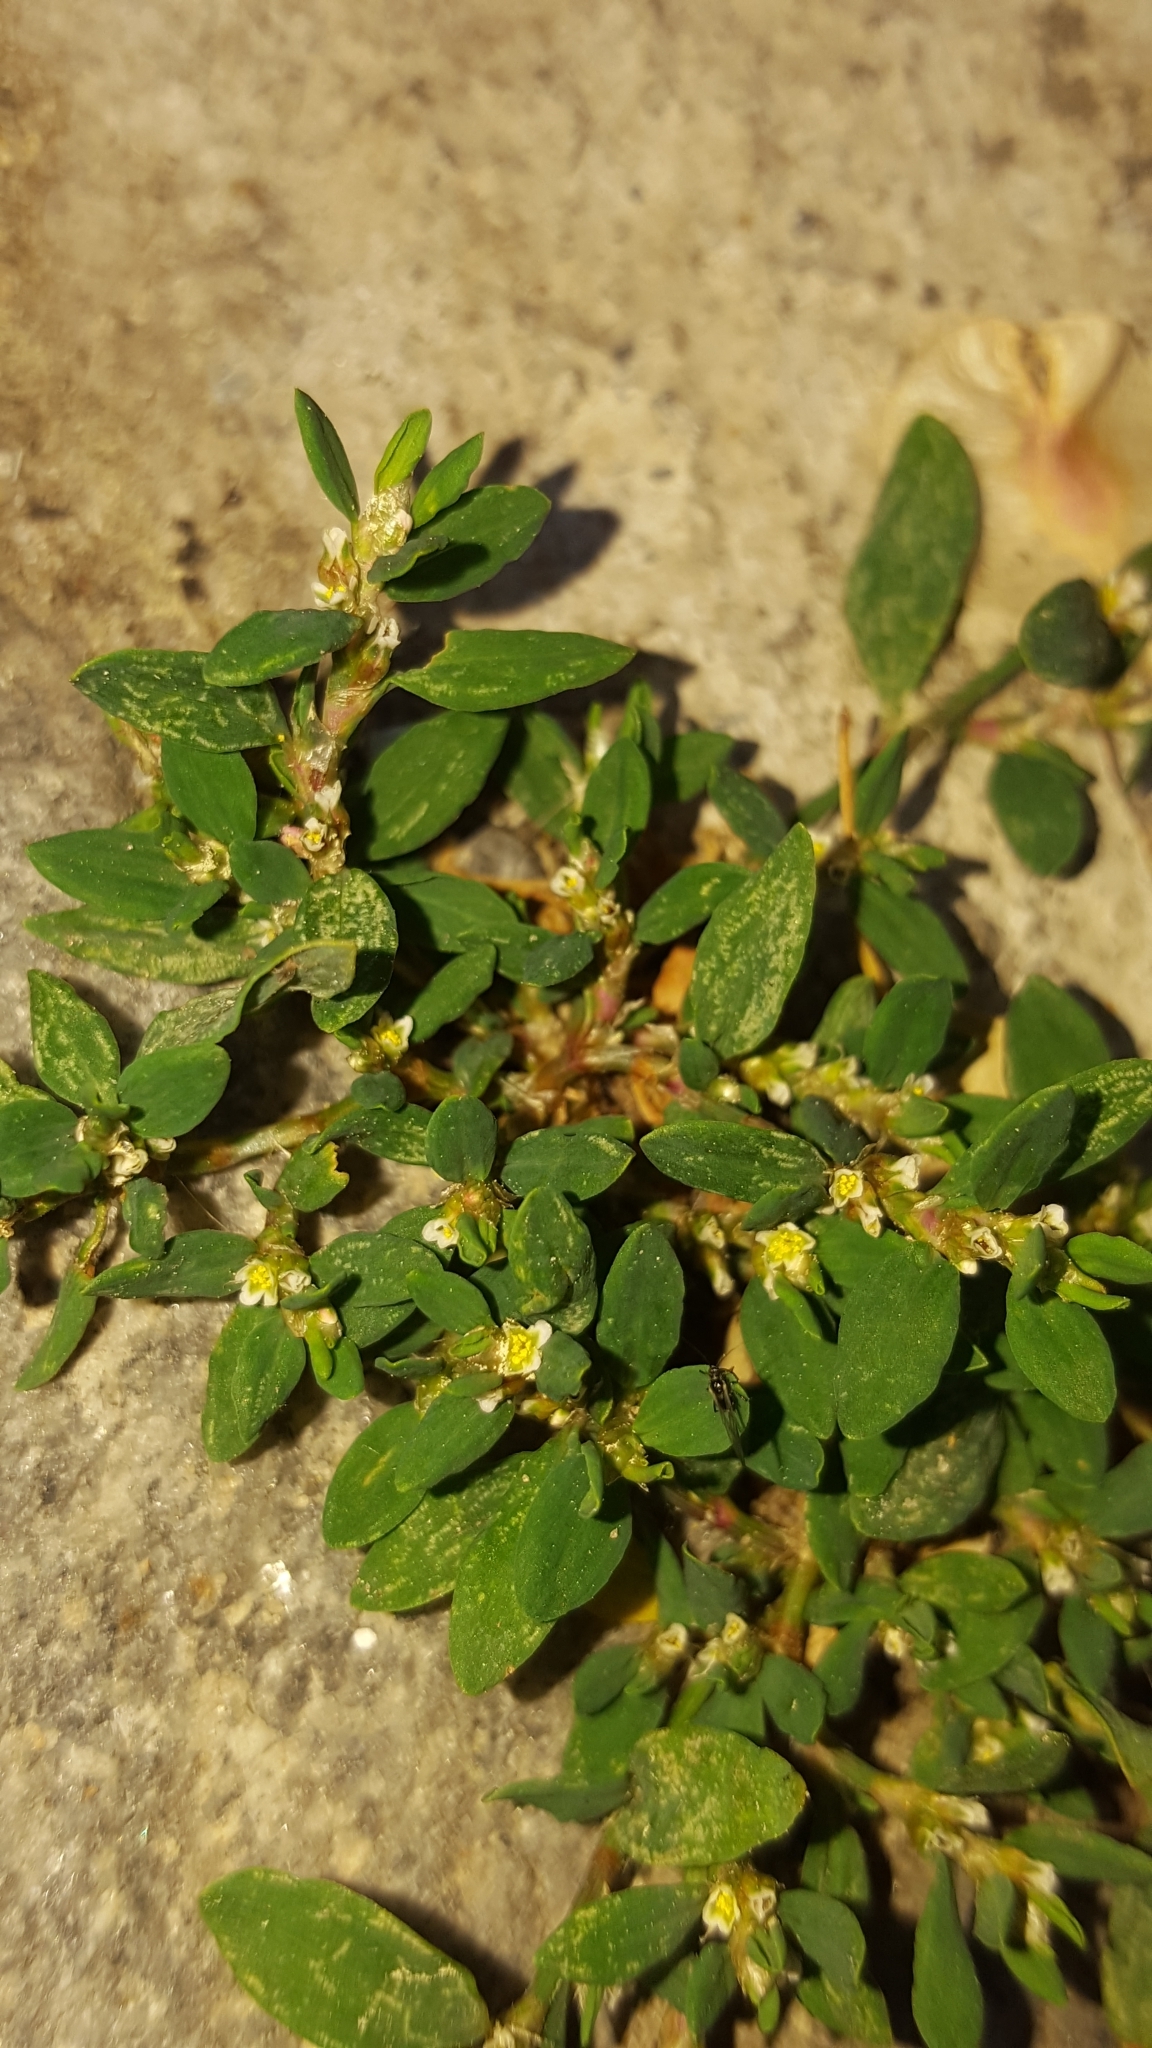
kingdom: Plantae
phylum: Tracheophyta
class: Magnoliopsida
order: Caryophyllales
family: Polygonaceae
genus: Polygonum
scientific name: Polygonum aviculare
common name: Prostrate knotweed
